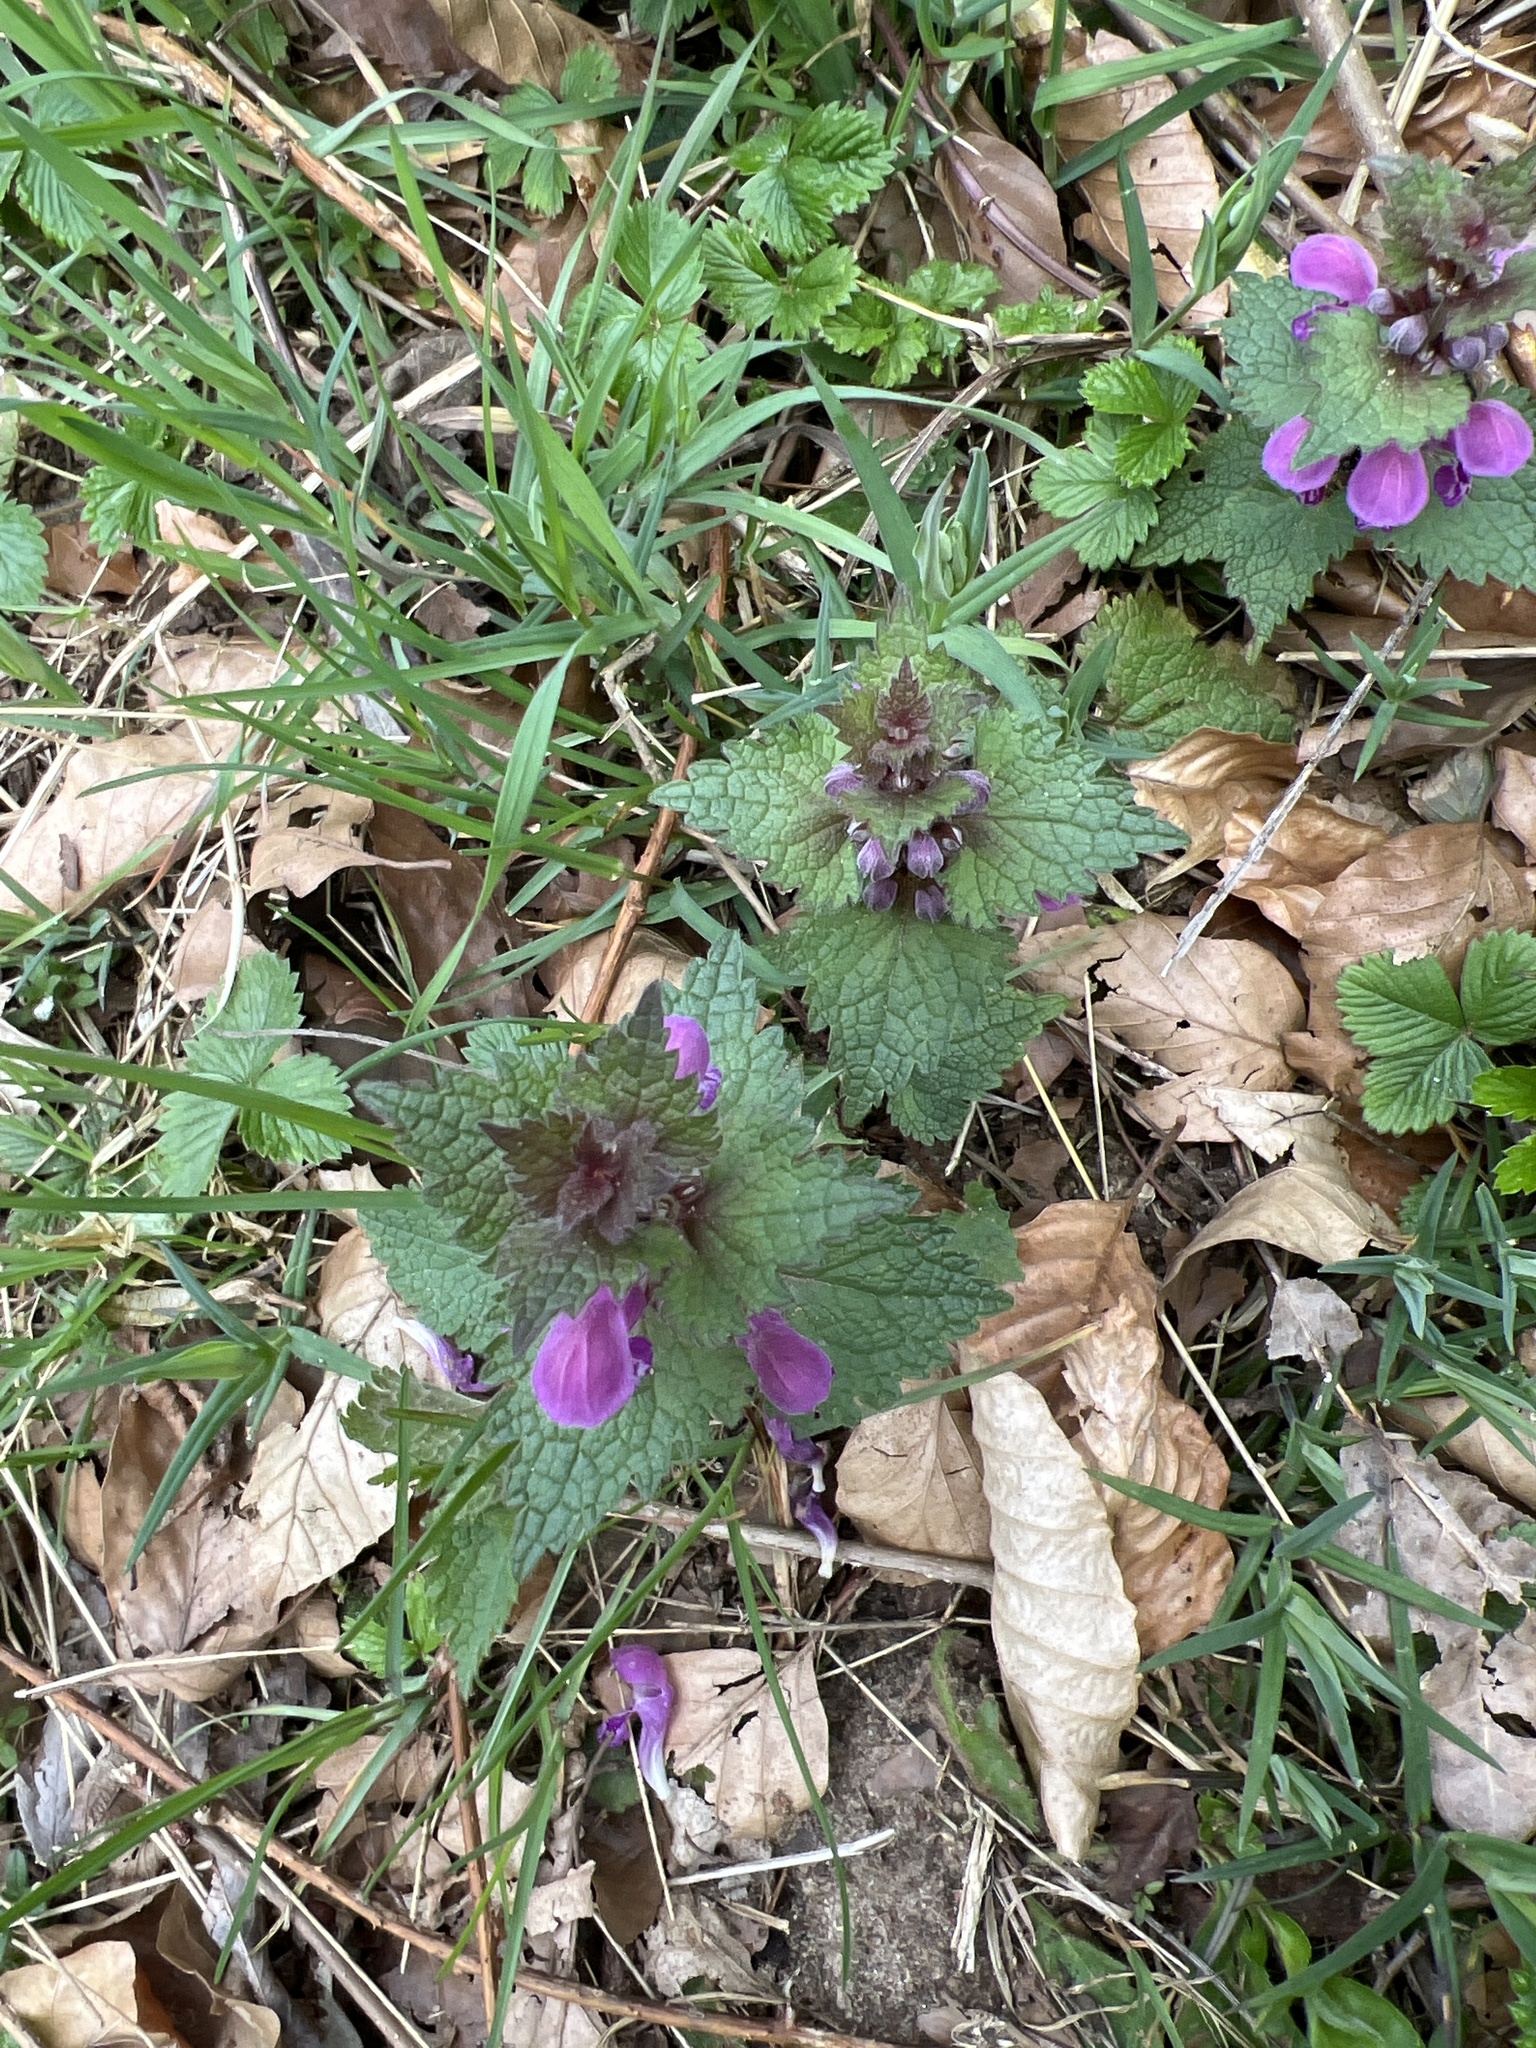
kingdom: Plantae
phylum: Tracheophyta
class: Magnoliopsida
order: Lamiales
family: Lamiaceae
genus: Lamium
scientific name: Lamium maculatum
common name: Spotted dead-nettle
